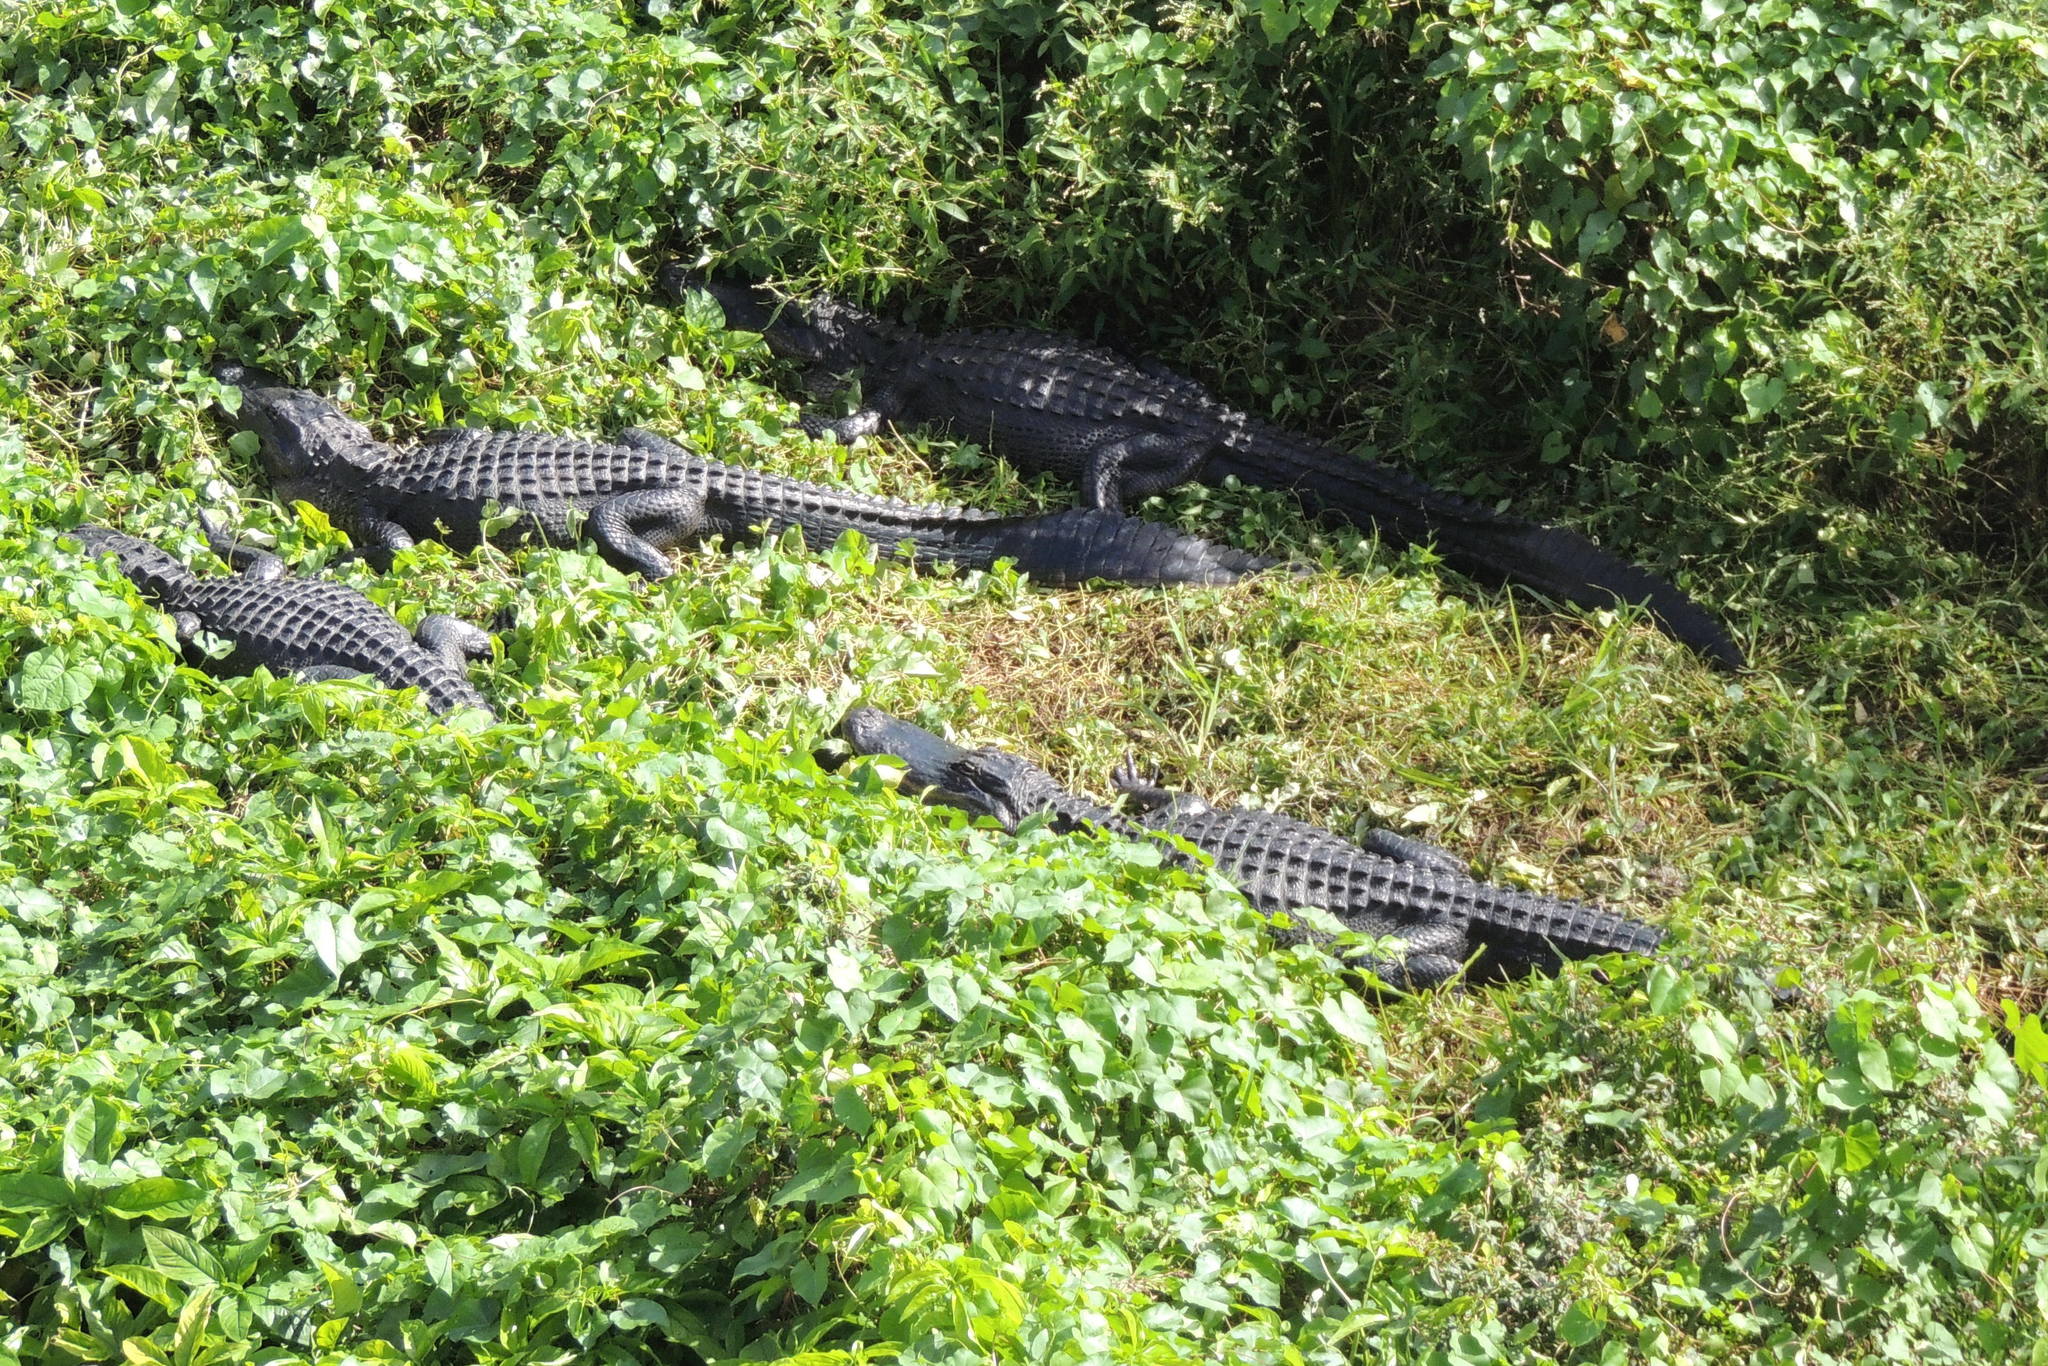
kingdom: Animalia
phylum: Chordata
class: Crocodylia
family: Alligatoridae
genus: Alligator
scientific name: Alligator mississippiensis
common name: American alligator
